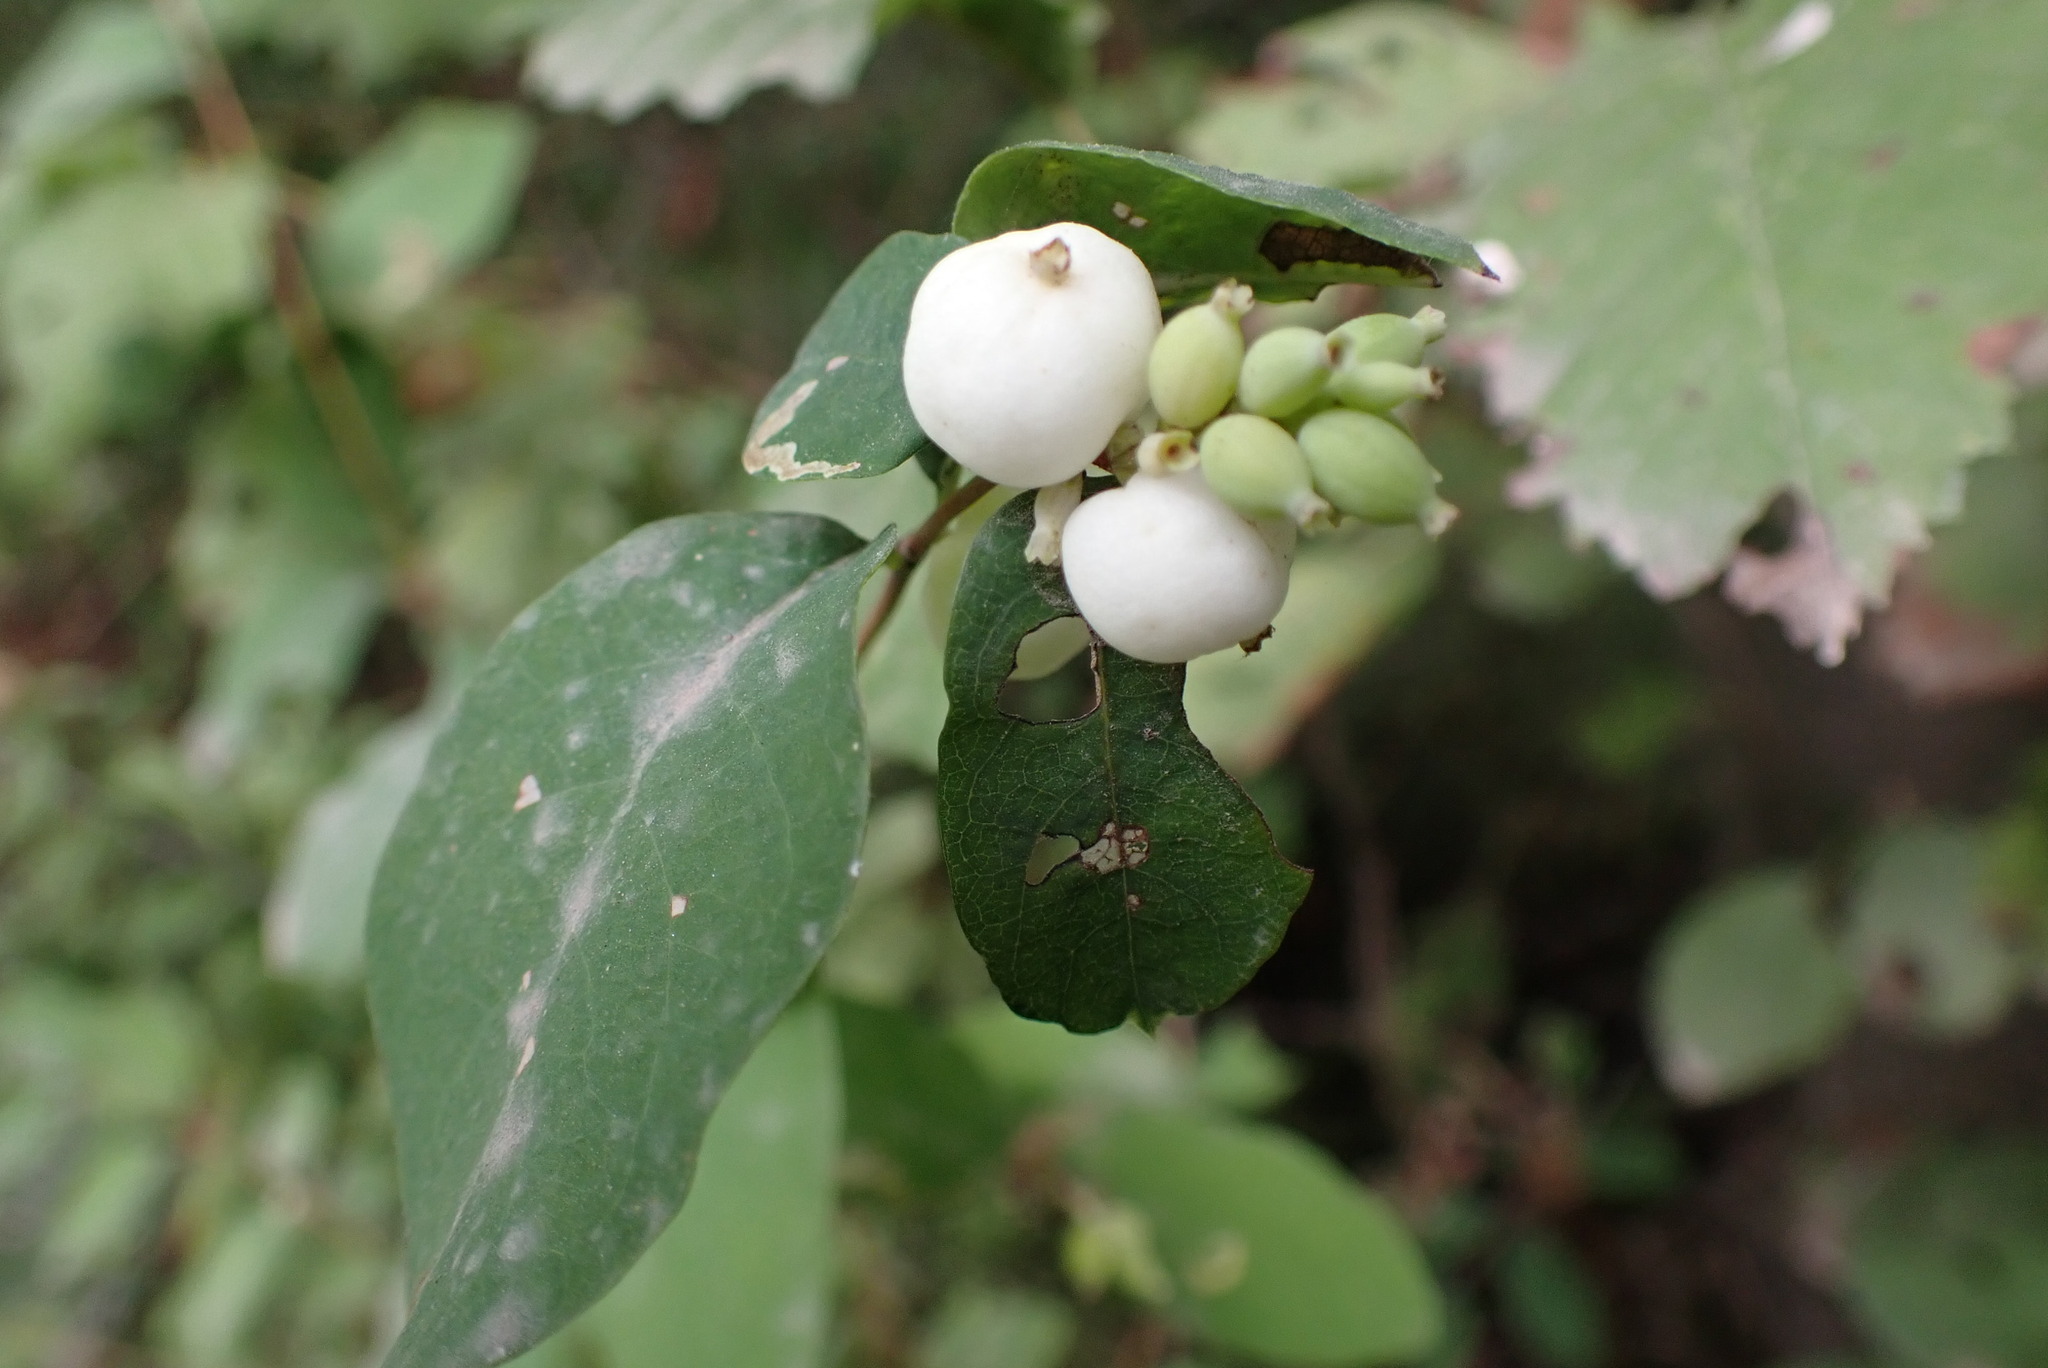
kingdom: Plantae
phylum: Tracheophyta
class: Magnoliopsida
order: Dipsacales
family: Caprifoliaceae
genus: Symphoricarpos
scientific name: Symphoricarpos albus
